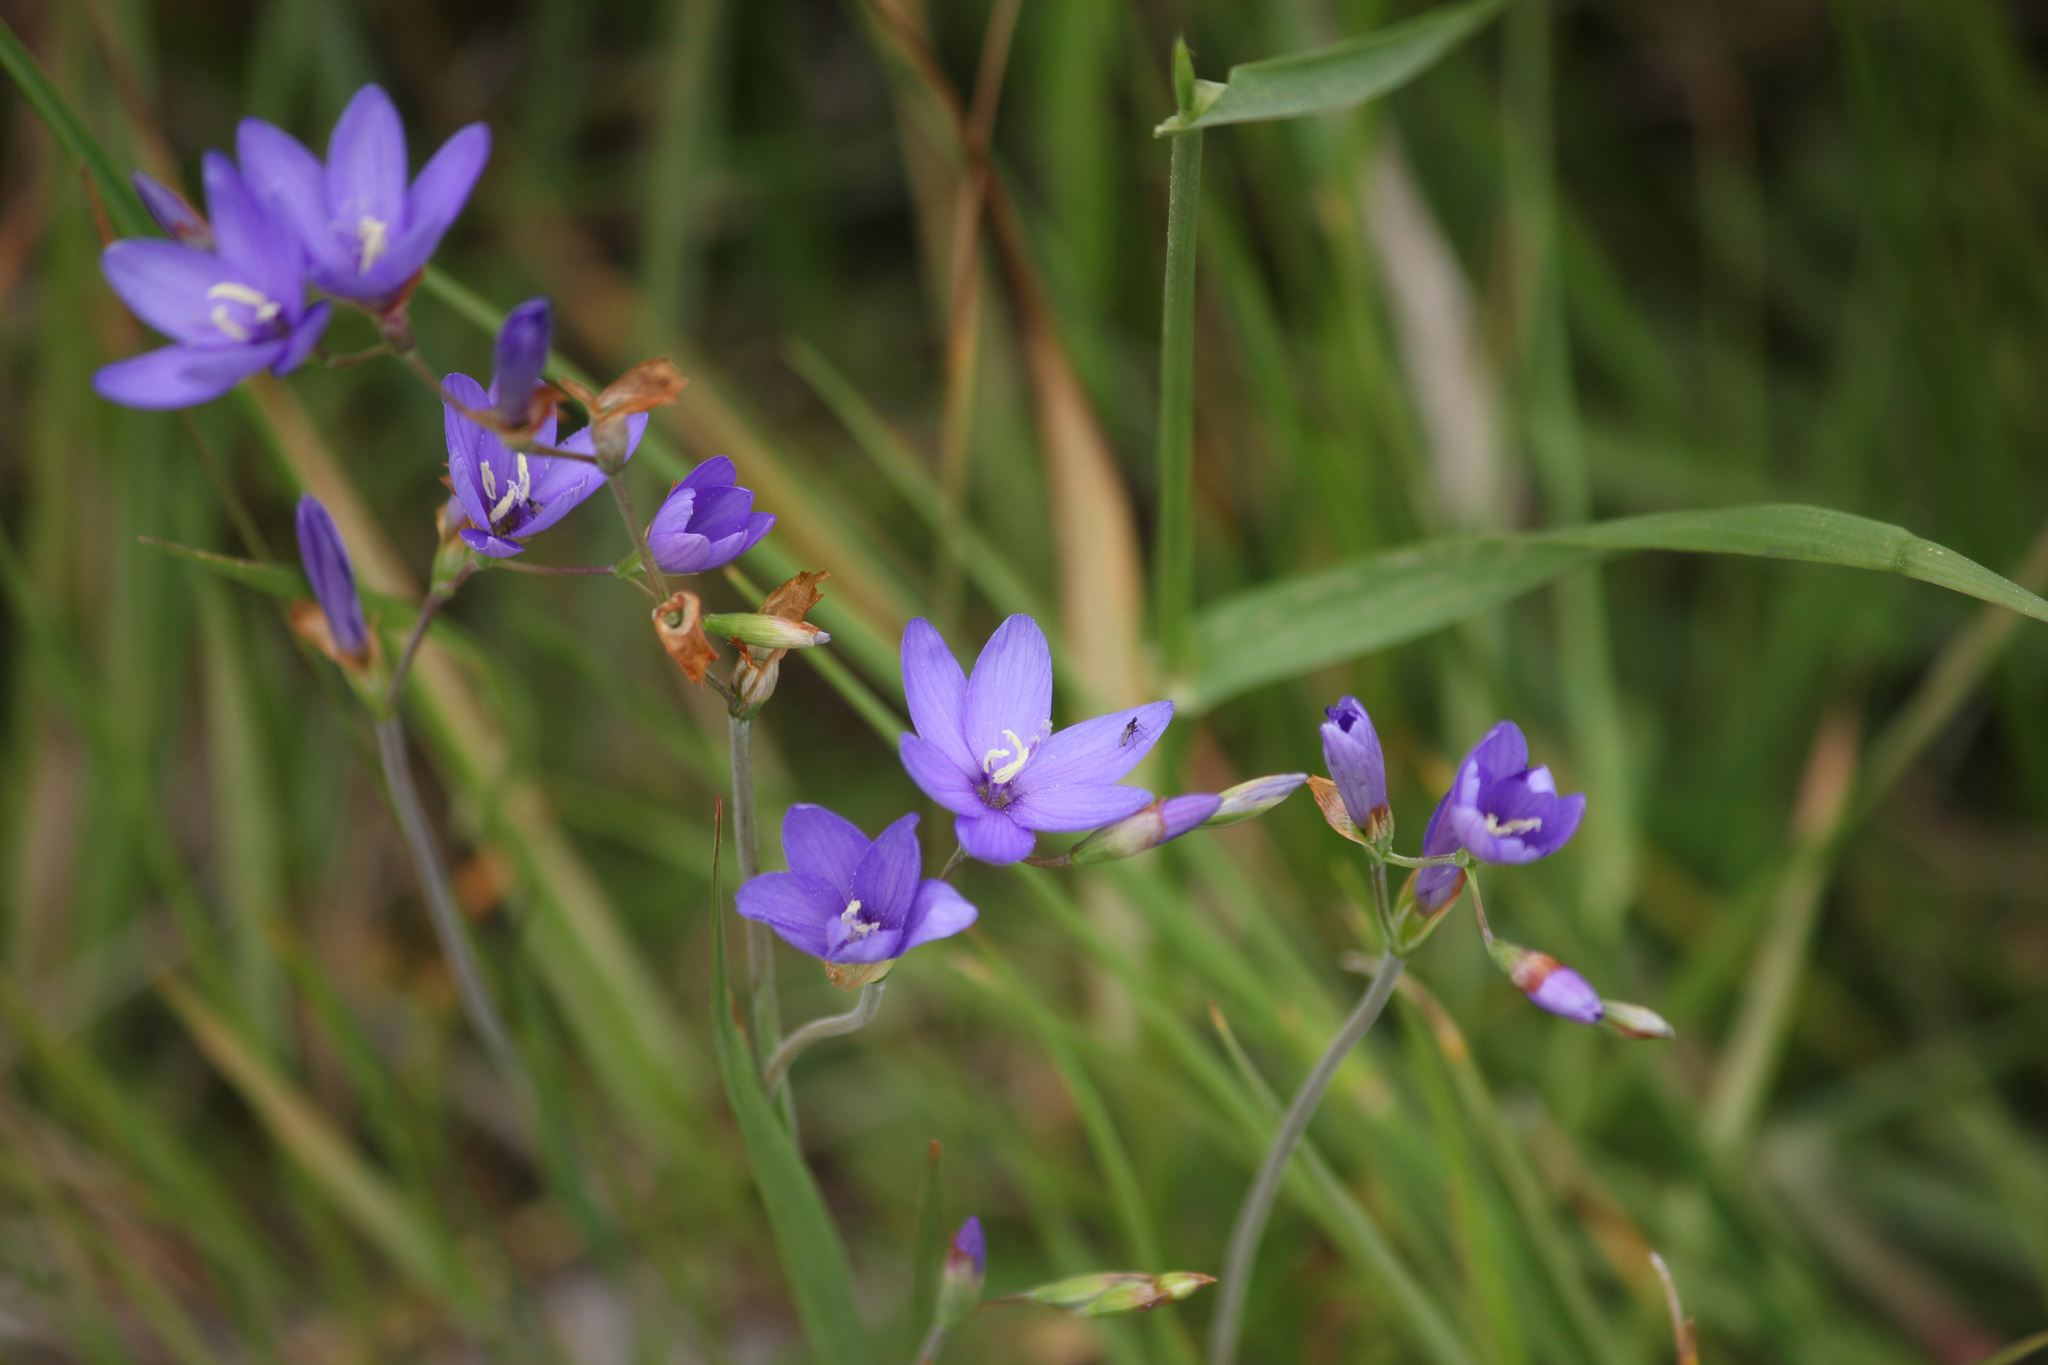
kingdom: Plantae
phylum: Tracheophyta
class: Liliopsida
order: Asparagales
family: Iridaceae
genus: Geissorhiza
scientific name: Geissorhiza aspera
